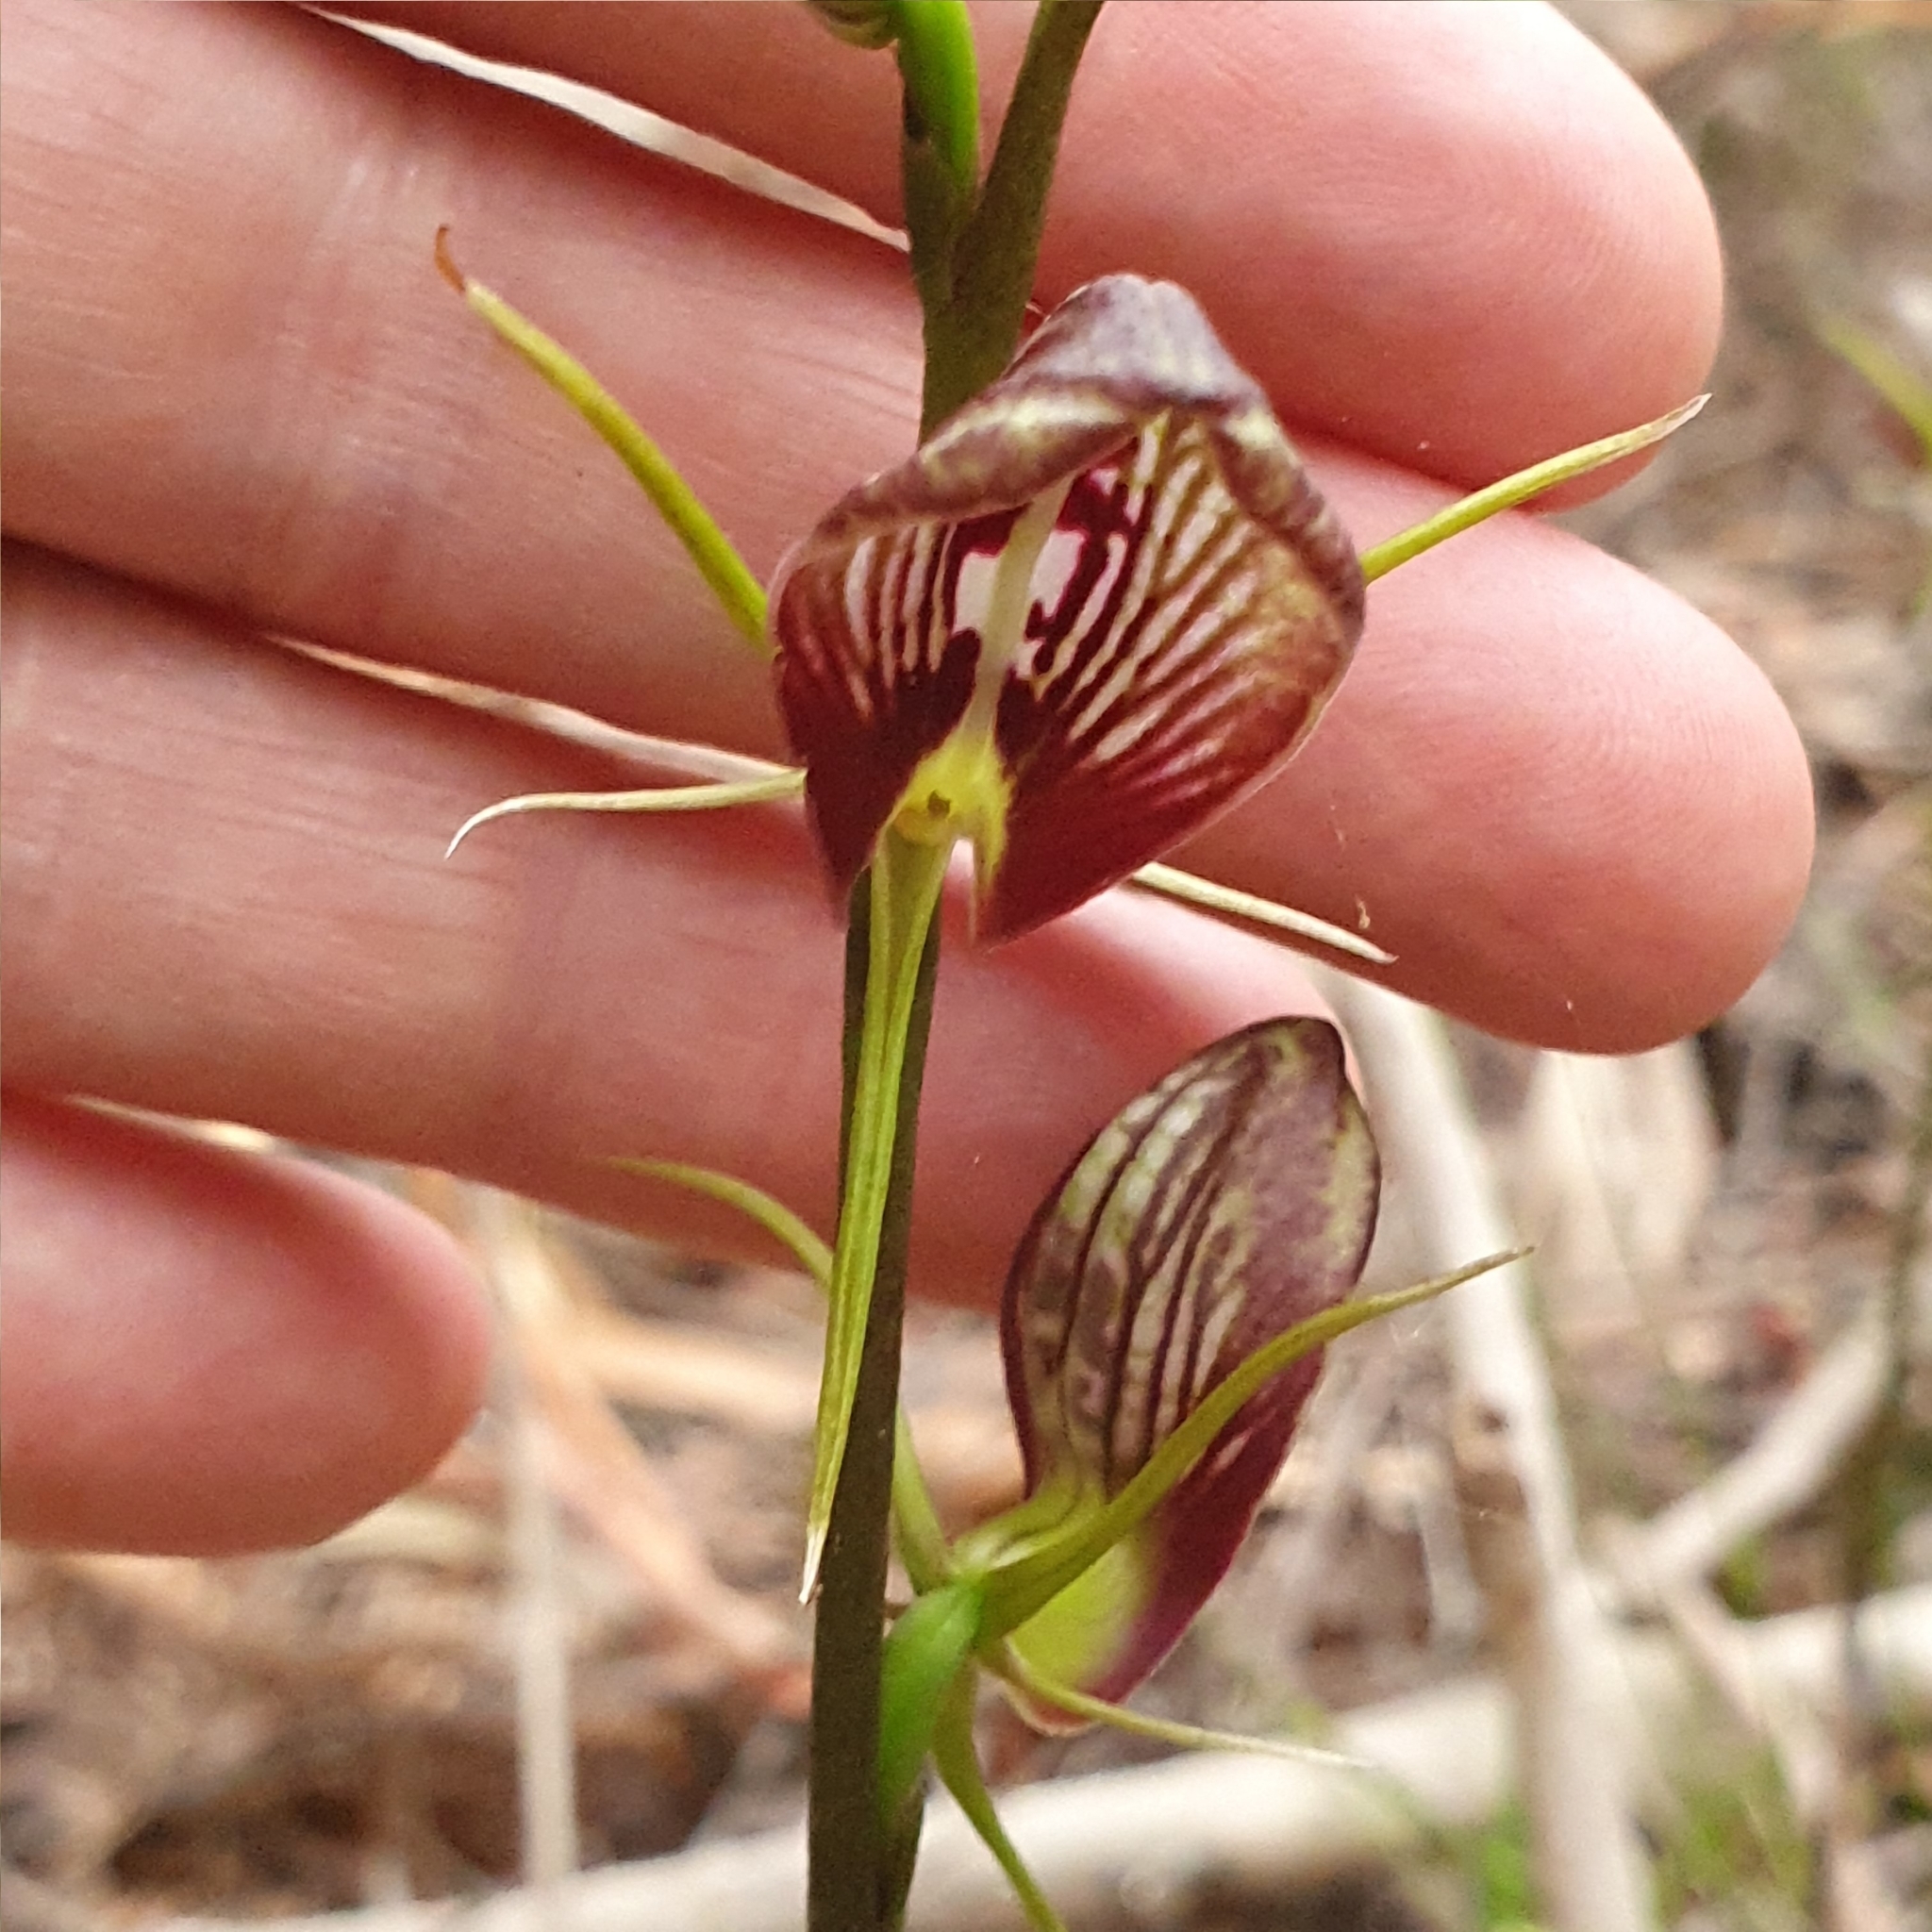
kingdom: Plantae
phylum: Tracheophyta
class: Liliopsida
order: Asparagales
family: Orchidaceae
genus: Cryptostylis
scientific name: Cryptostylis erecta
